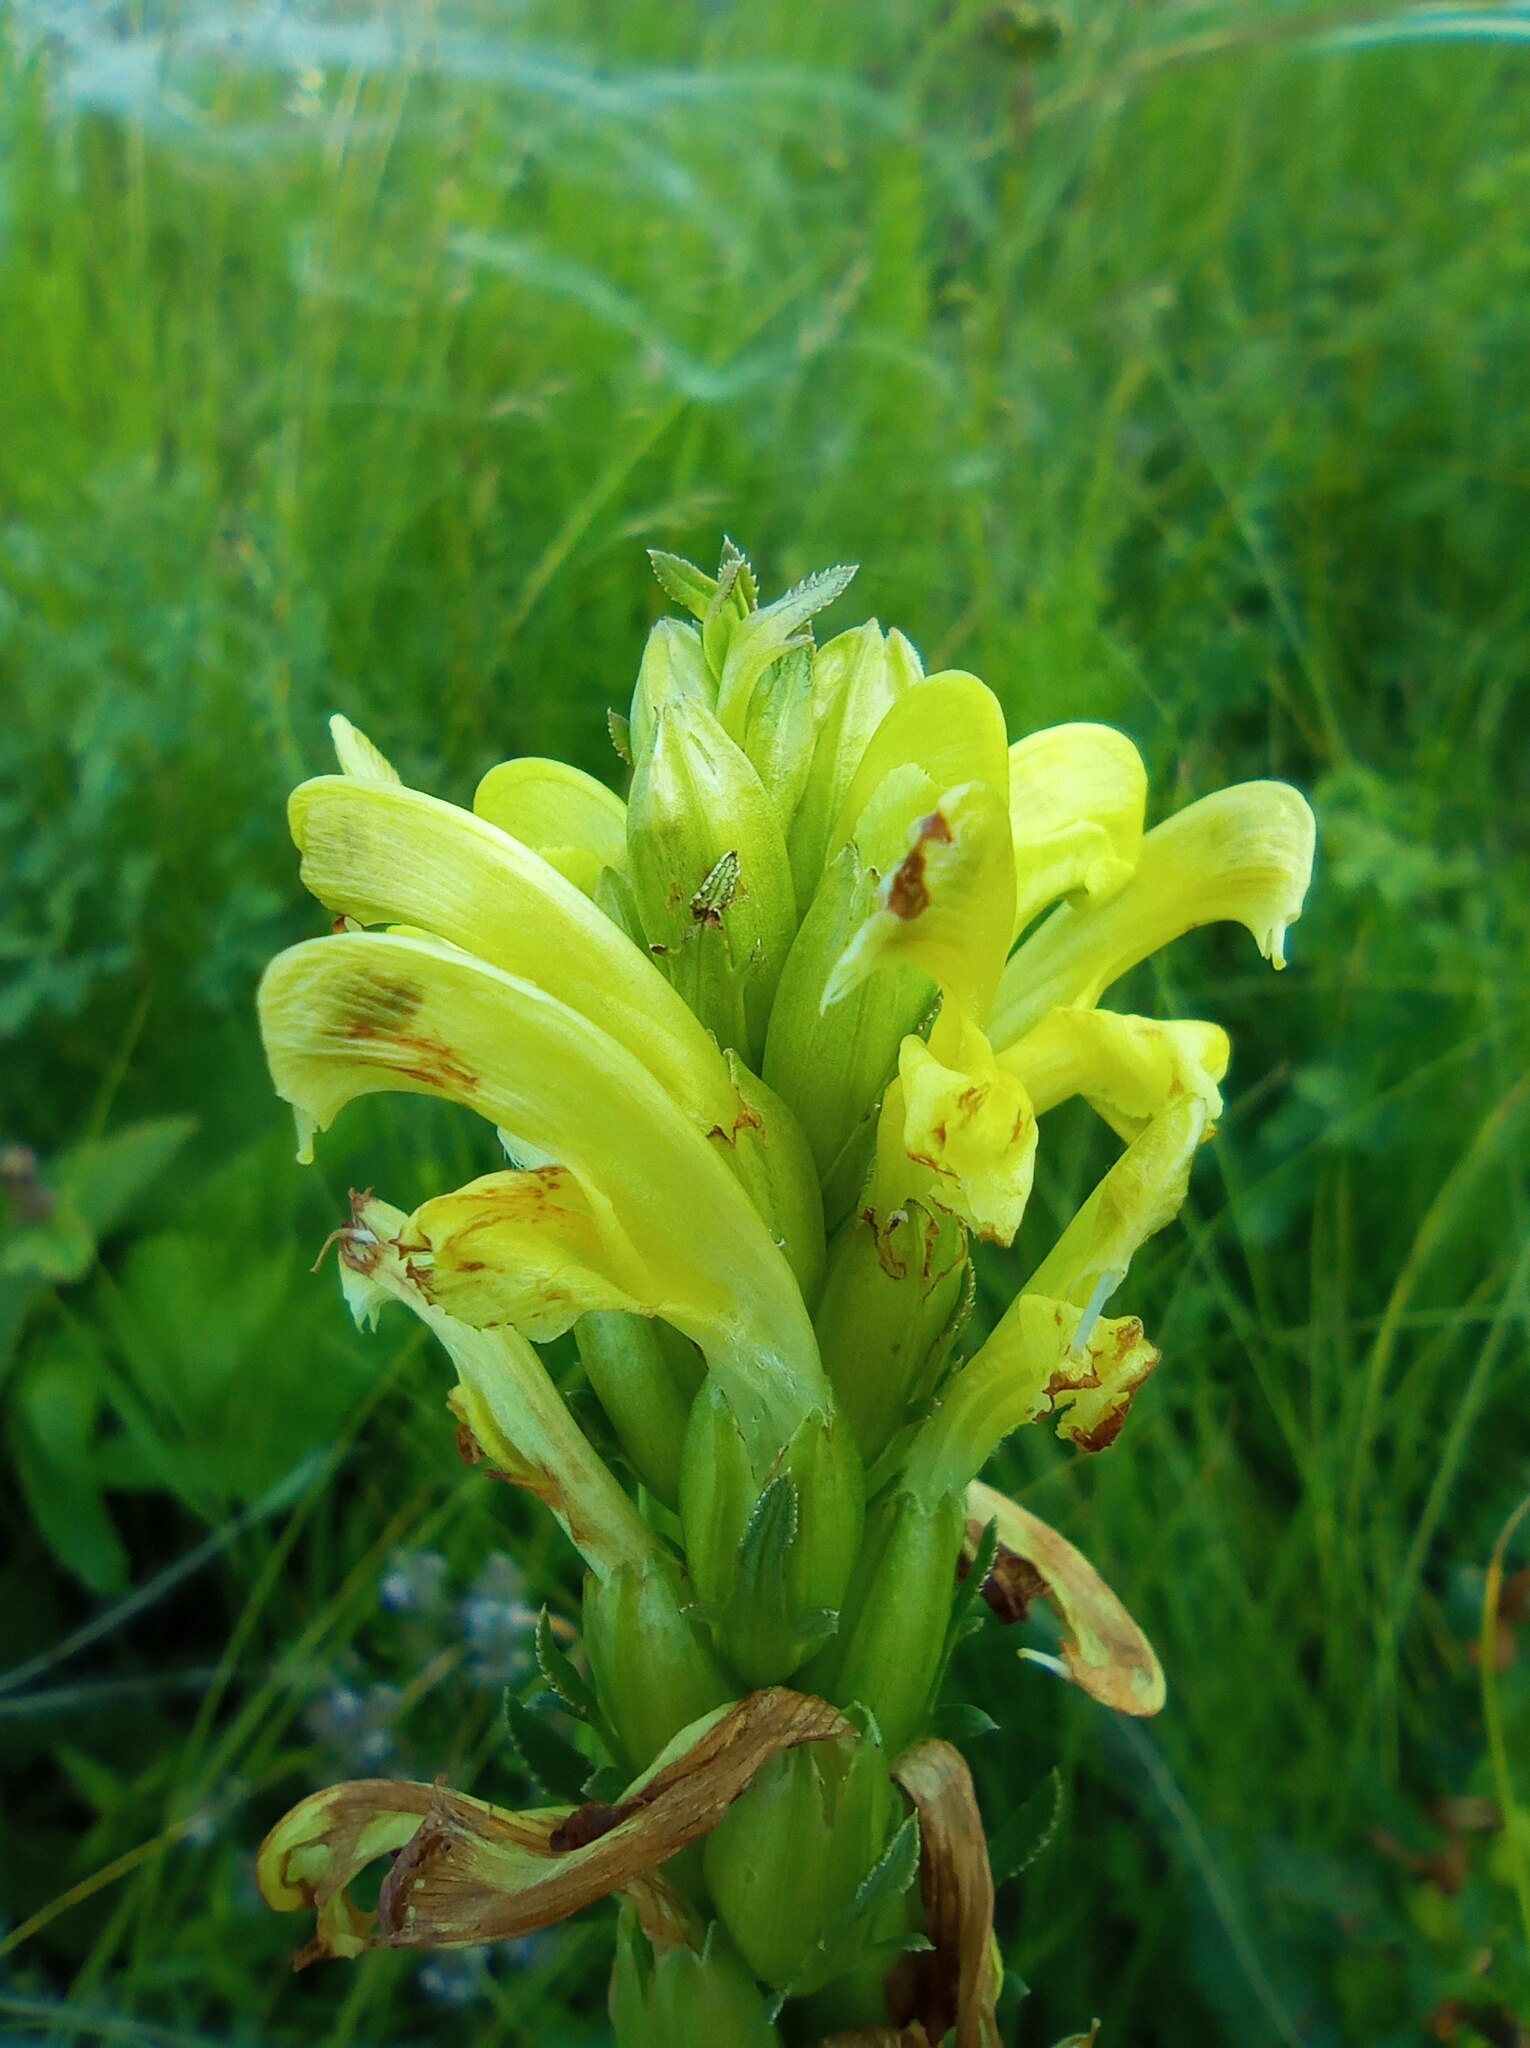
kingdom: Plantae
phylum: Tracheophyta
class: Magnoliopsida
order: Lamiales
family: Orobanchaceae
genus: Pedicularis
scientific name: Pedicularis kaufmannii
